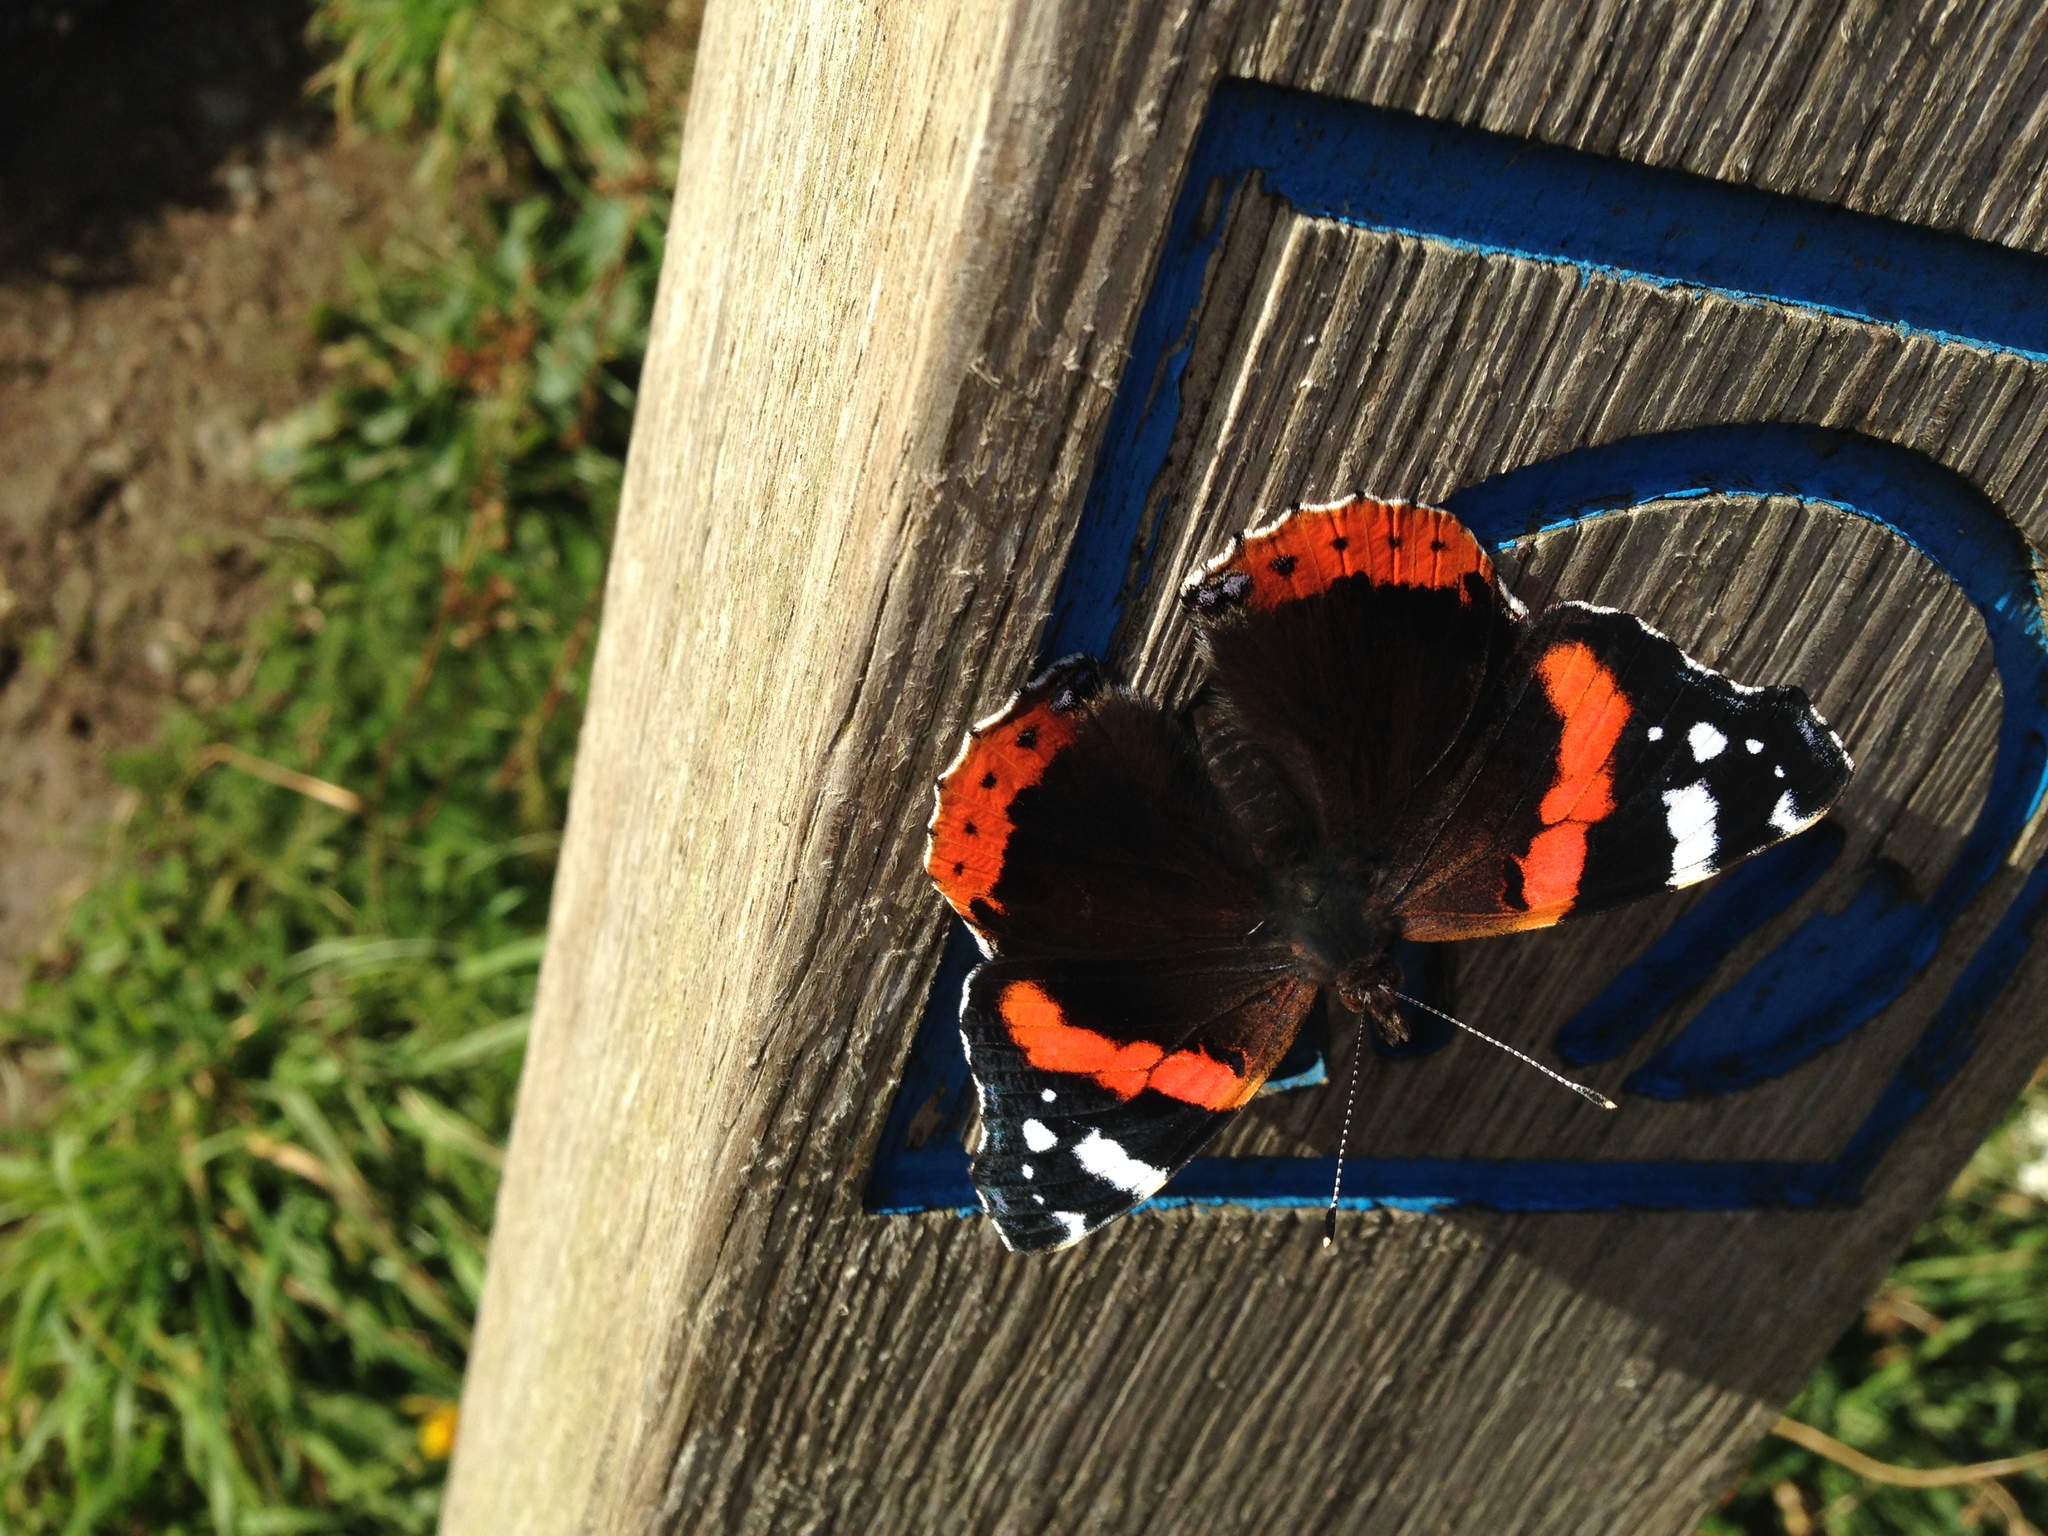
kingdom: Animalia
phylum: Arthropoda
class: Insecta
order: Lepidoptera
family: Nymphalidae
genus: Vanessa
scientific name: Vanessa atalanta
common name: Red admiral
